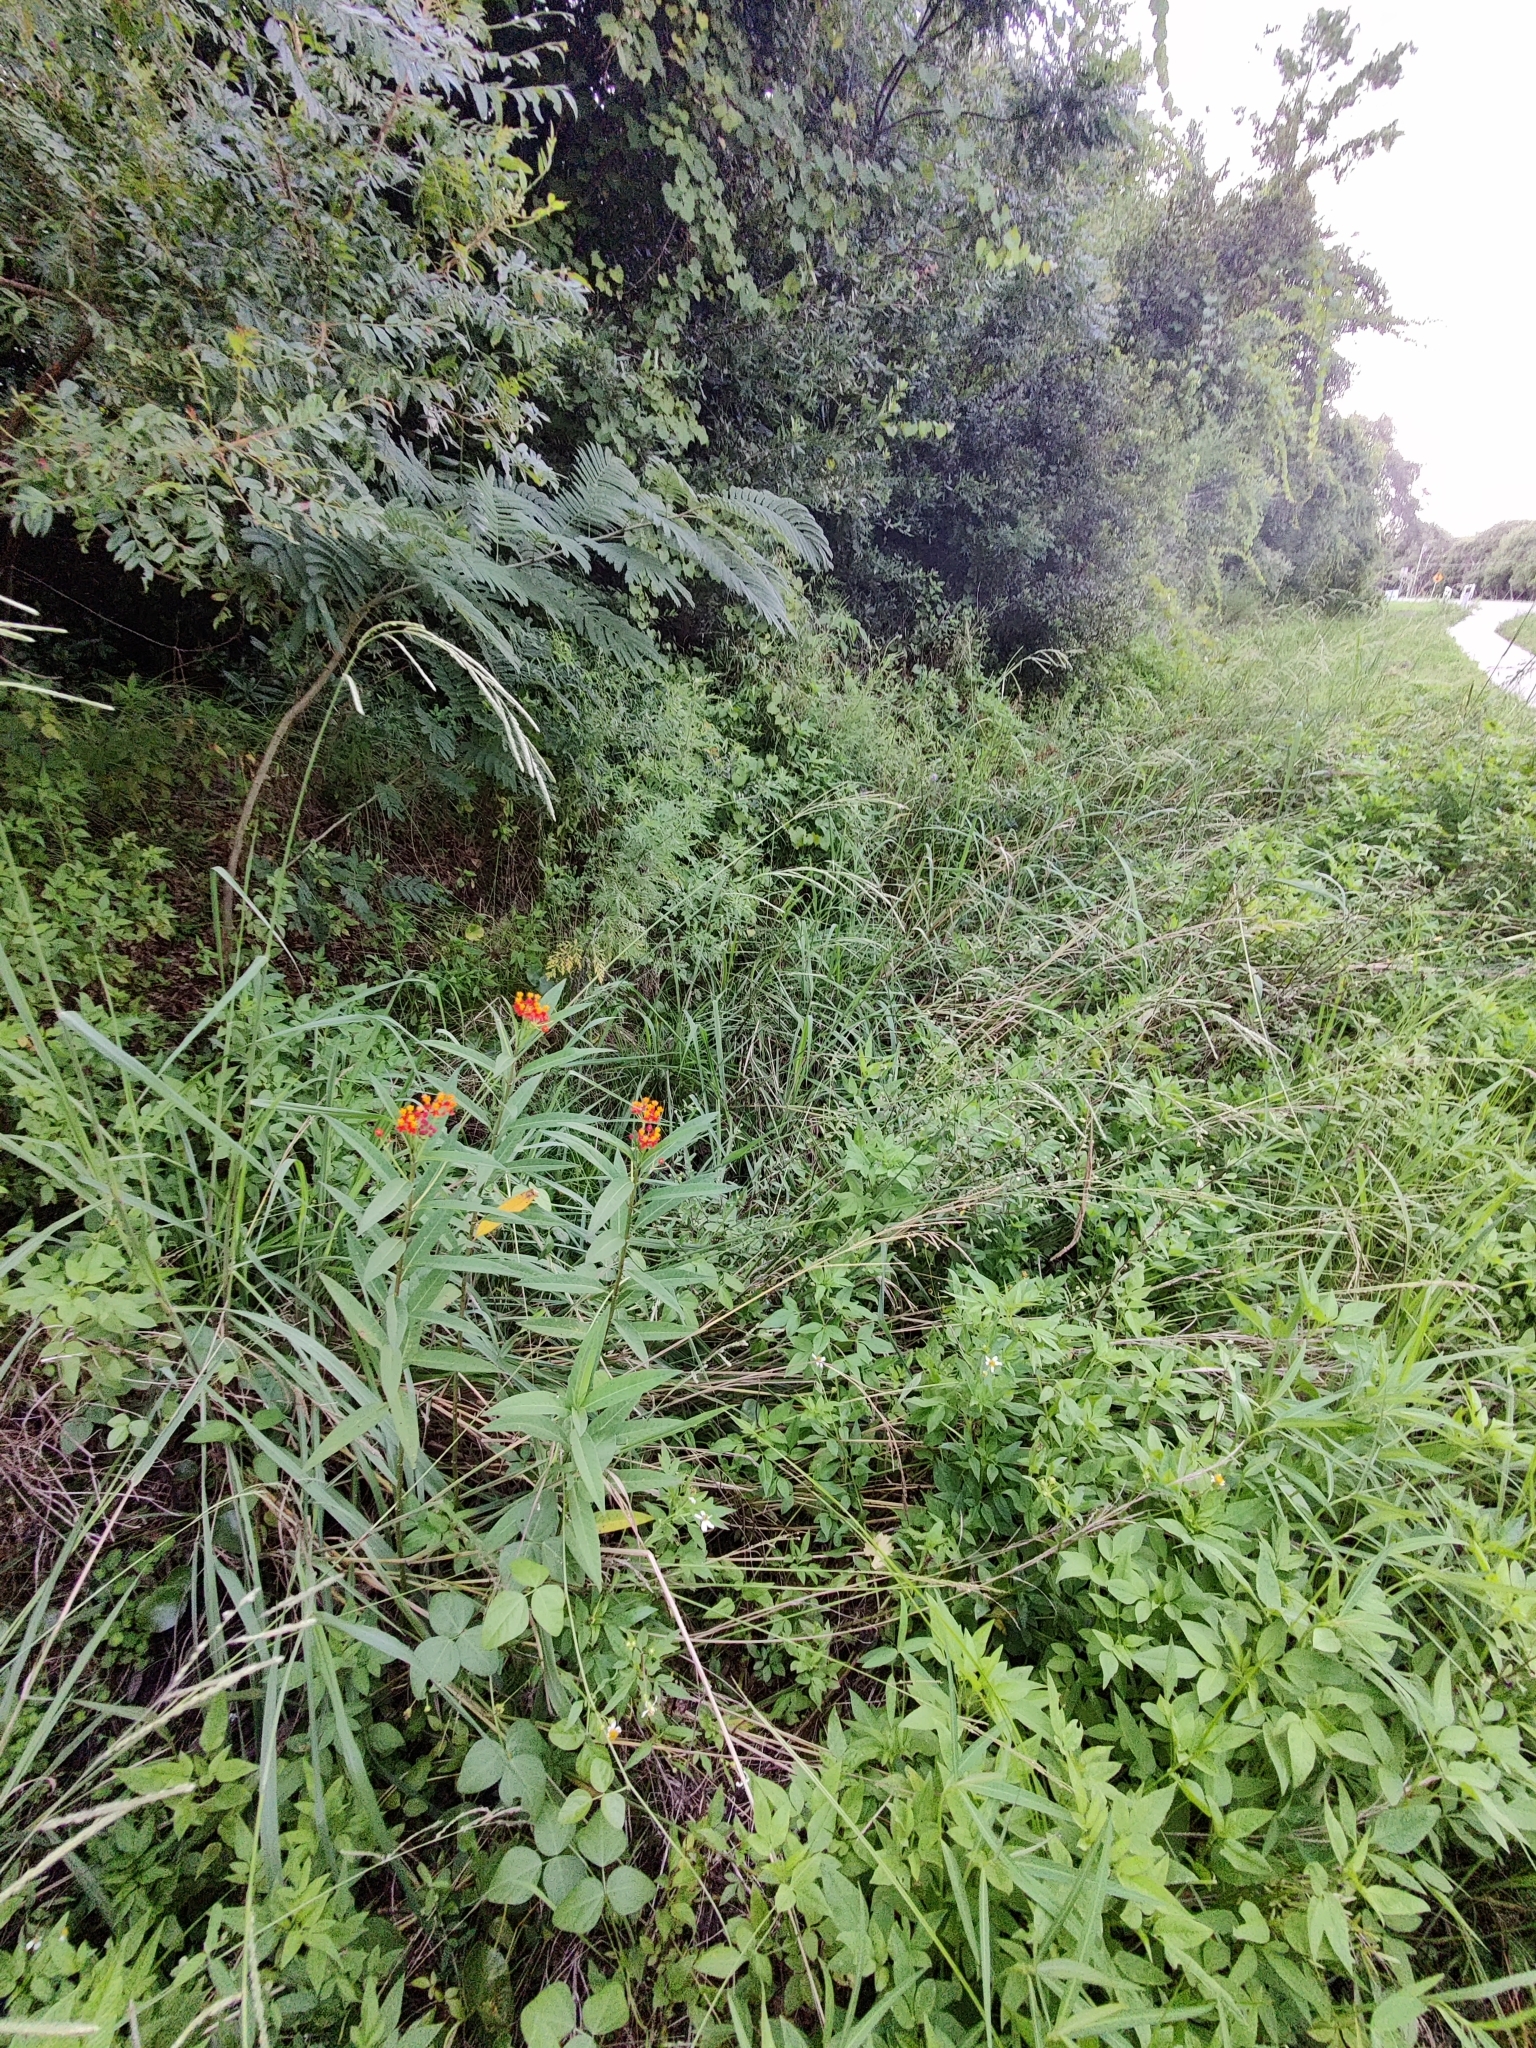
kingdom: Plantae
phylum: Tracheophyta
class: Magnoliopsida
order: Gentianales
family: Apocynaceae
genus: Asclepias
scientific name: Asclepias curassavica
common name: Bloodflower
